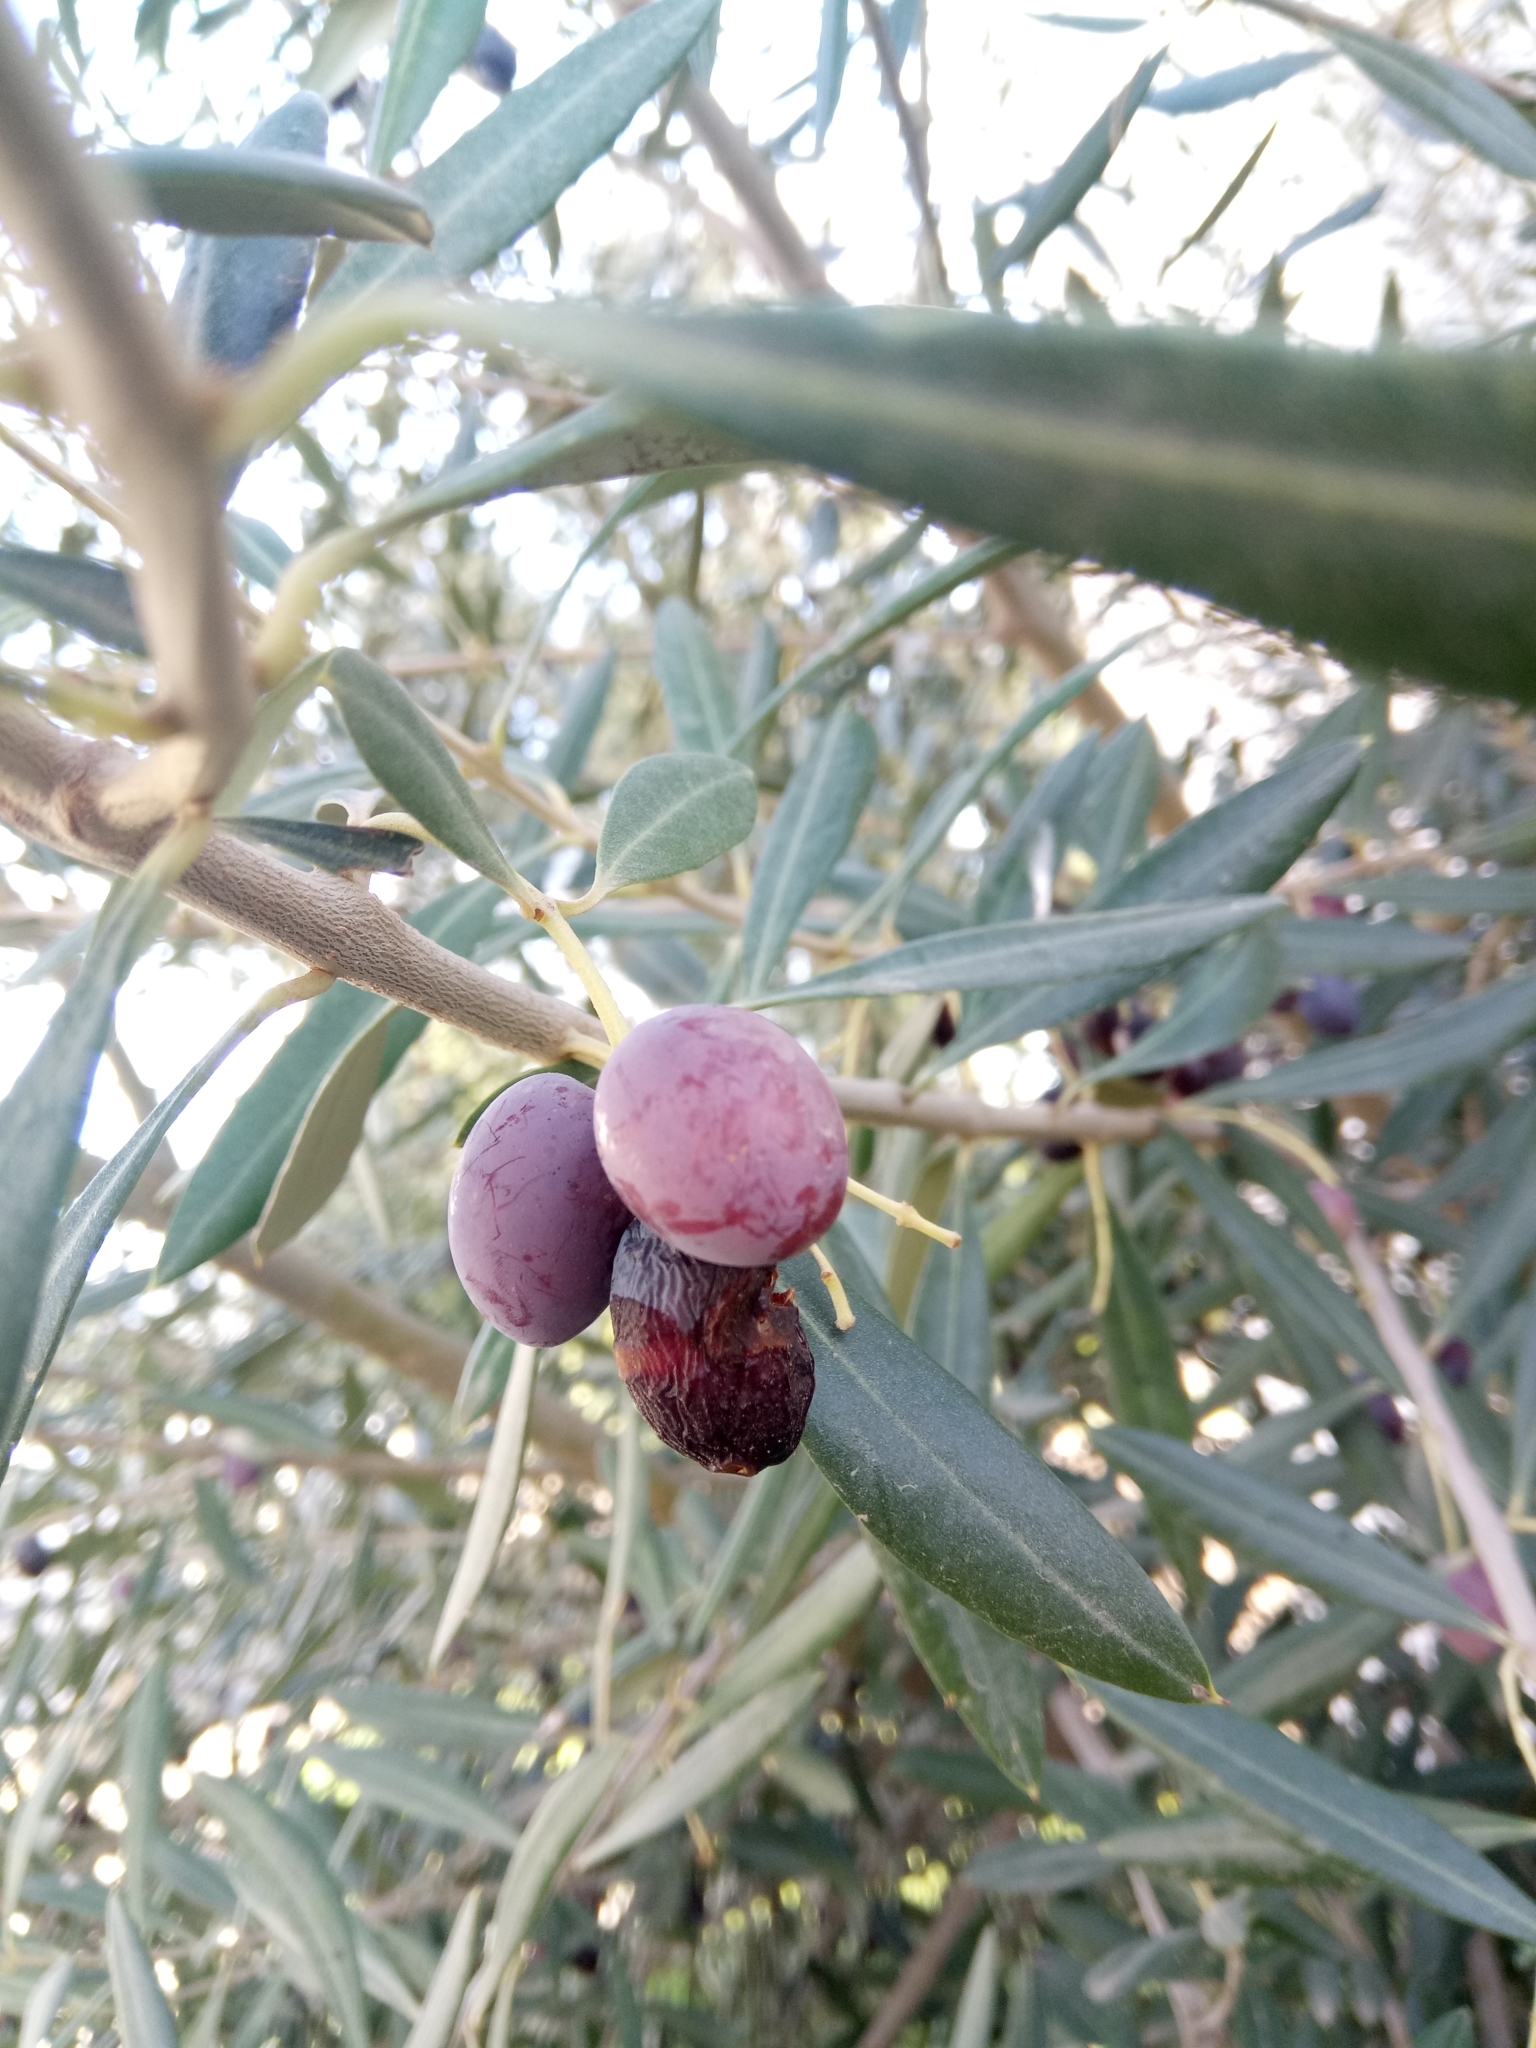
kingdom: Plantae
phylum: Tracheophyta
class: Magnoliopsida
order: Lamiales
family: Oleaceae
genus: Olea
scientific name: Olea europaea
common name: Olive
